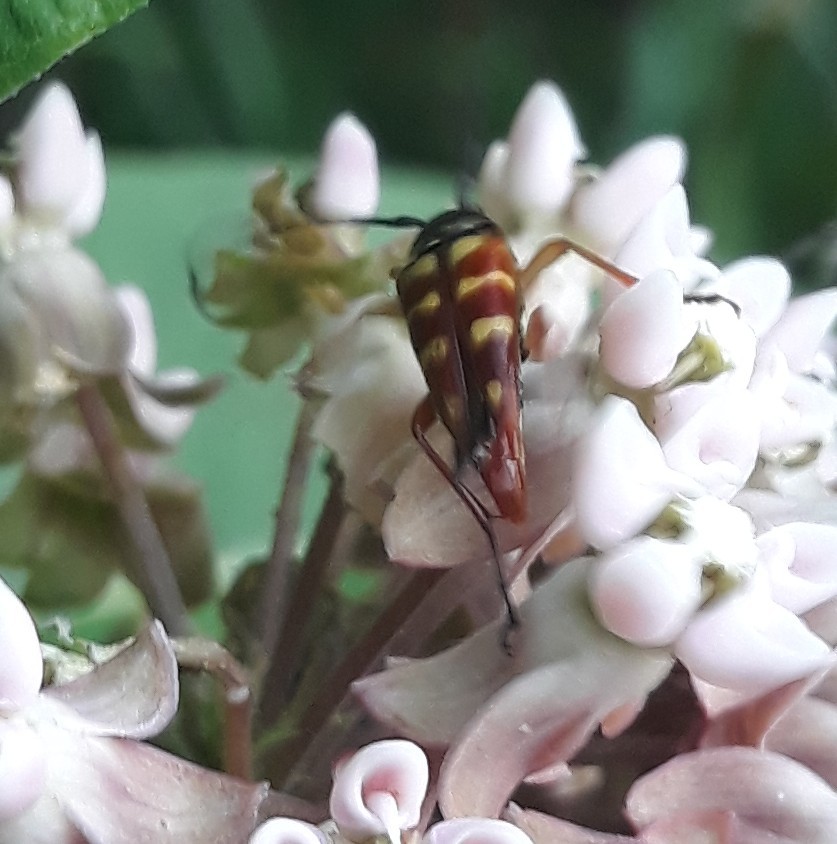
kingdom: Animalia
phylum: Arthropoda
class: Insecta
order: Coleoptera
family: Cerambycidae
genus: Typocerus
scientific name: Typocerus velutinus
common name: Banded longhorn beetle
